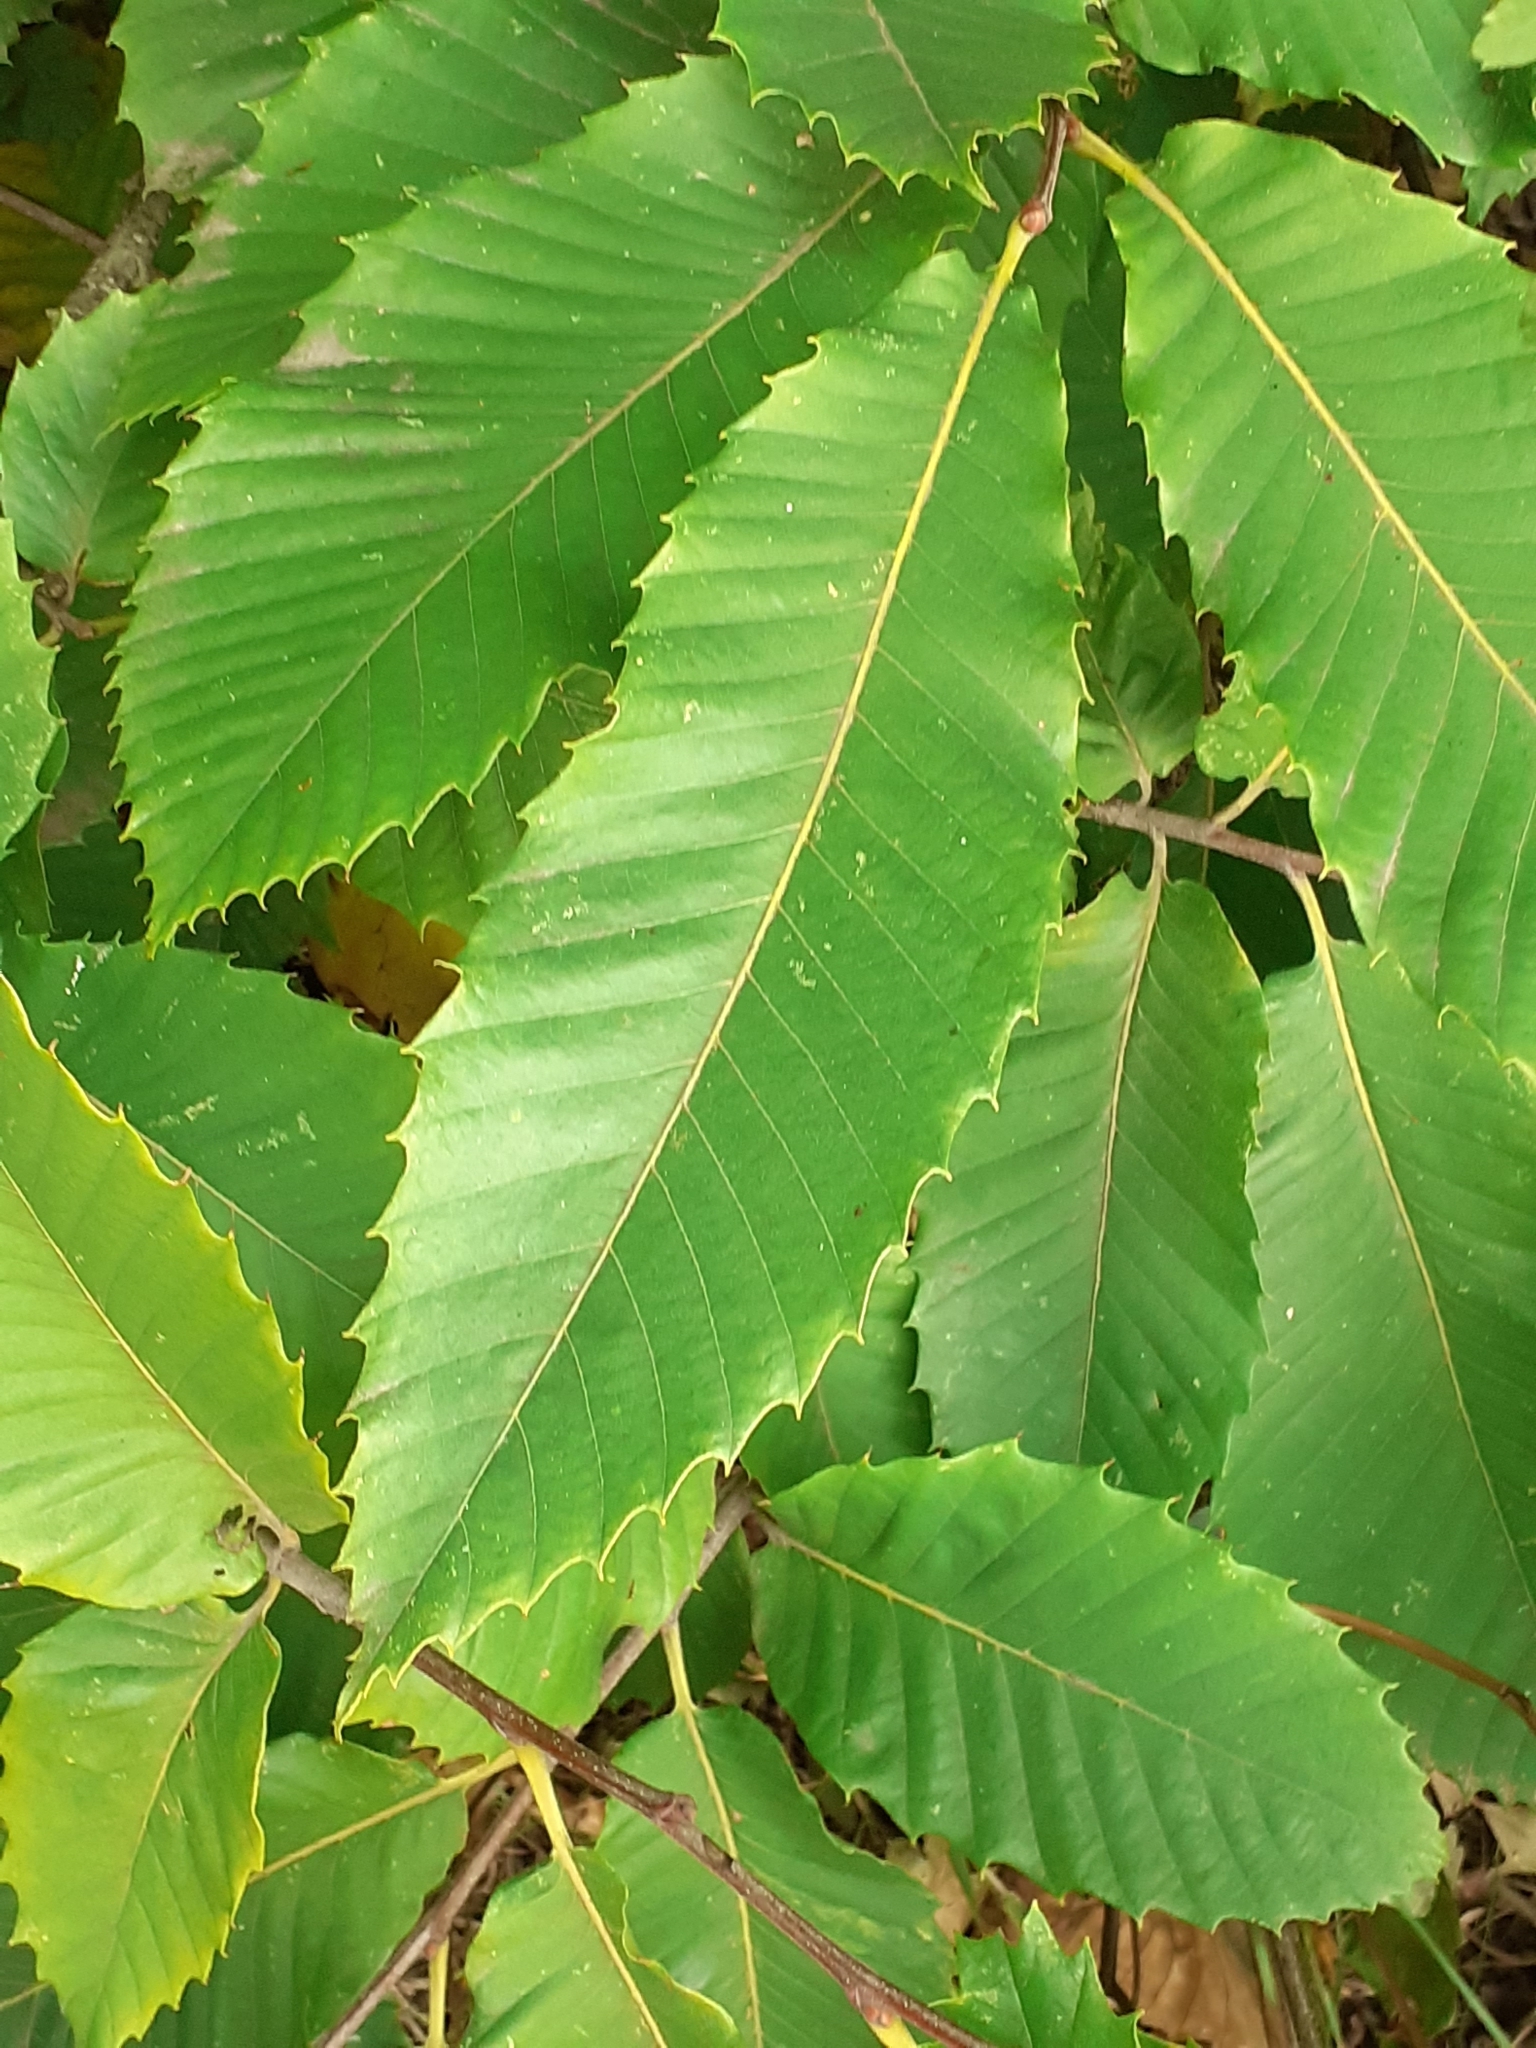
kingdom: Plantae
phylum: Tracheophyta
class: Magnoliopsida
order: Fagales
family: Fagaceae
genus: Castanea
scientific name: Castanea sativa
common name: Sweet chestnut
